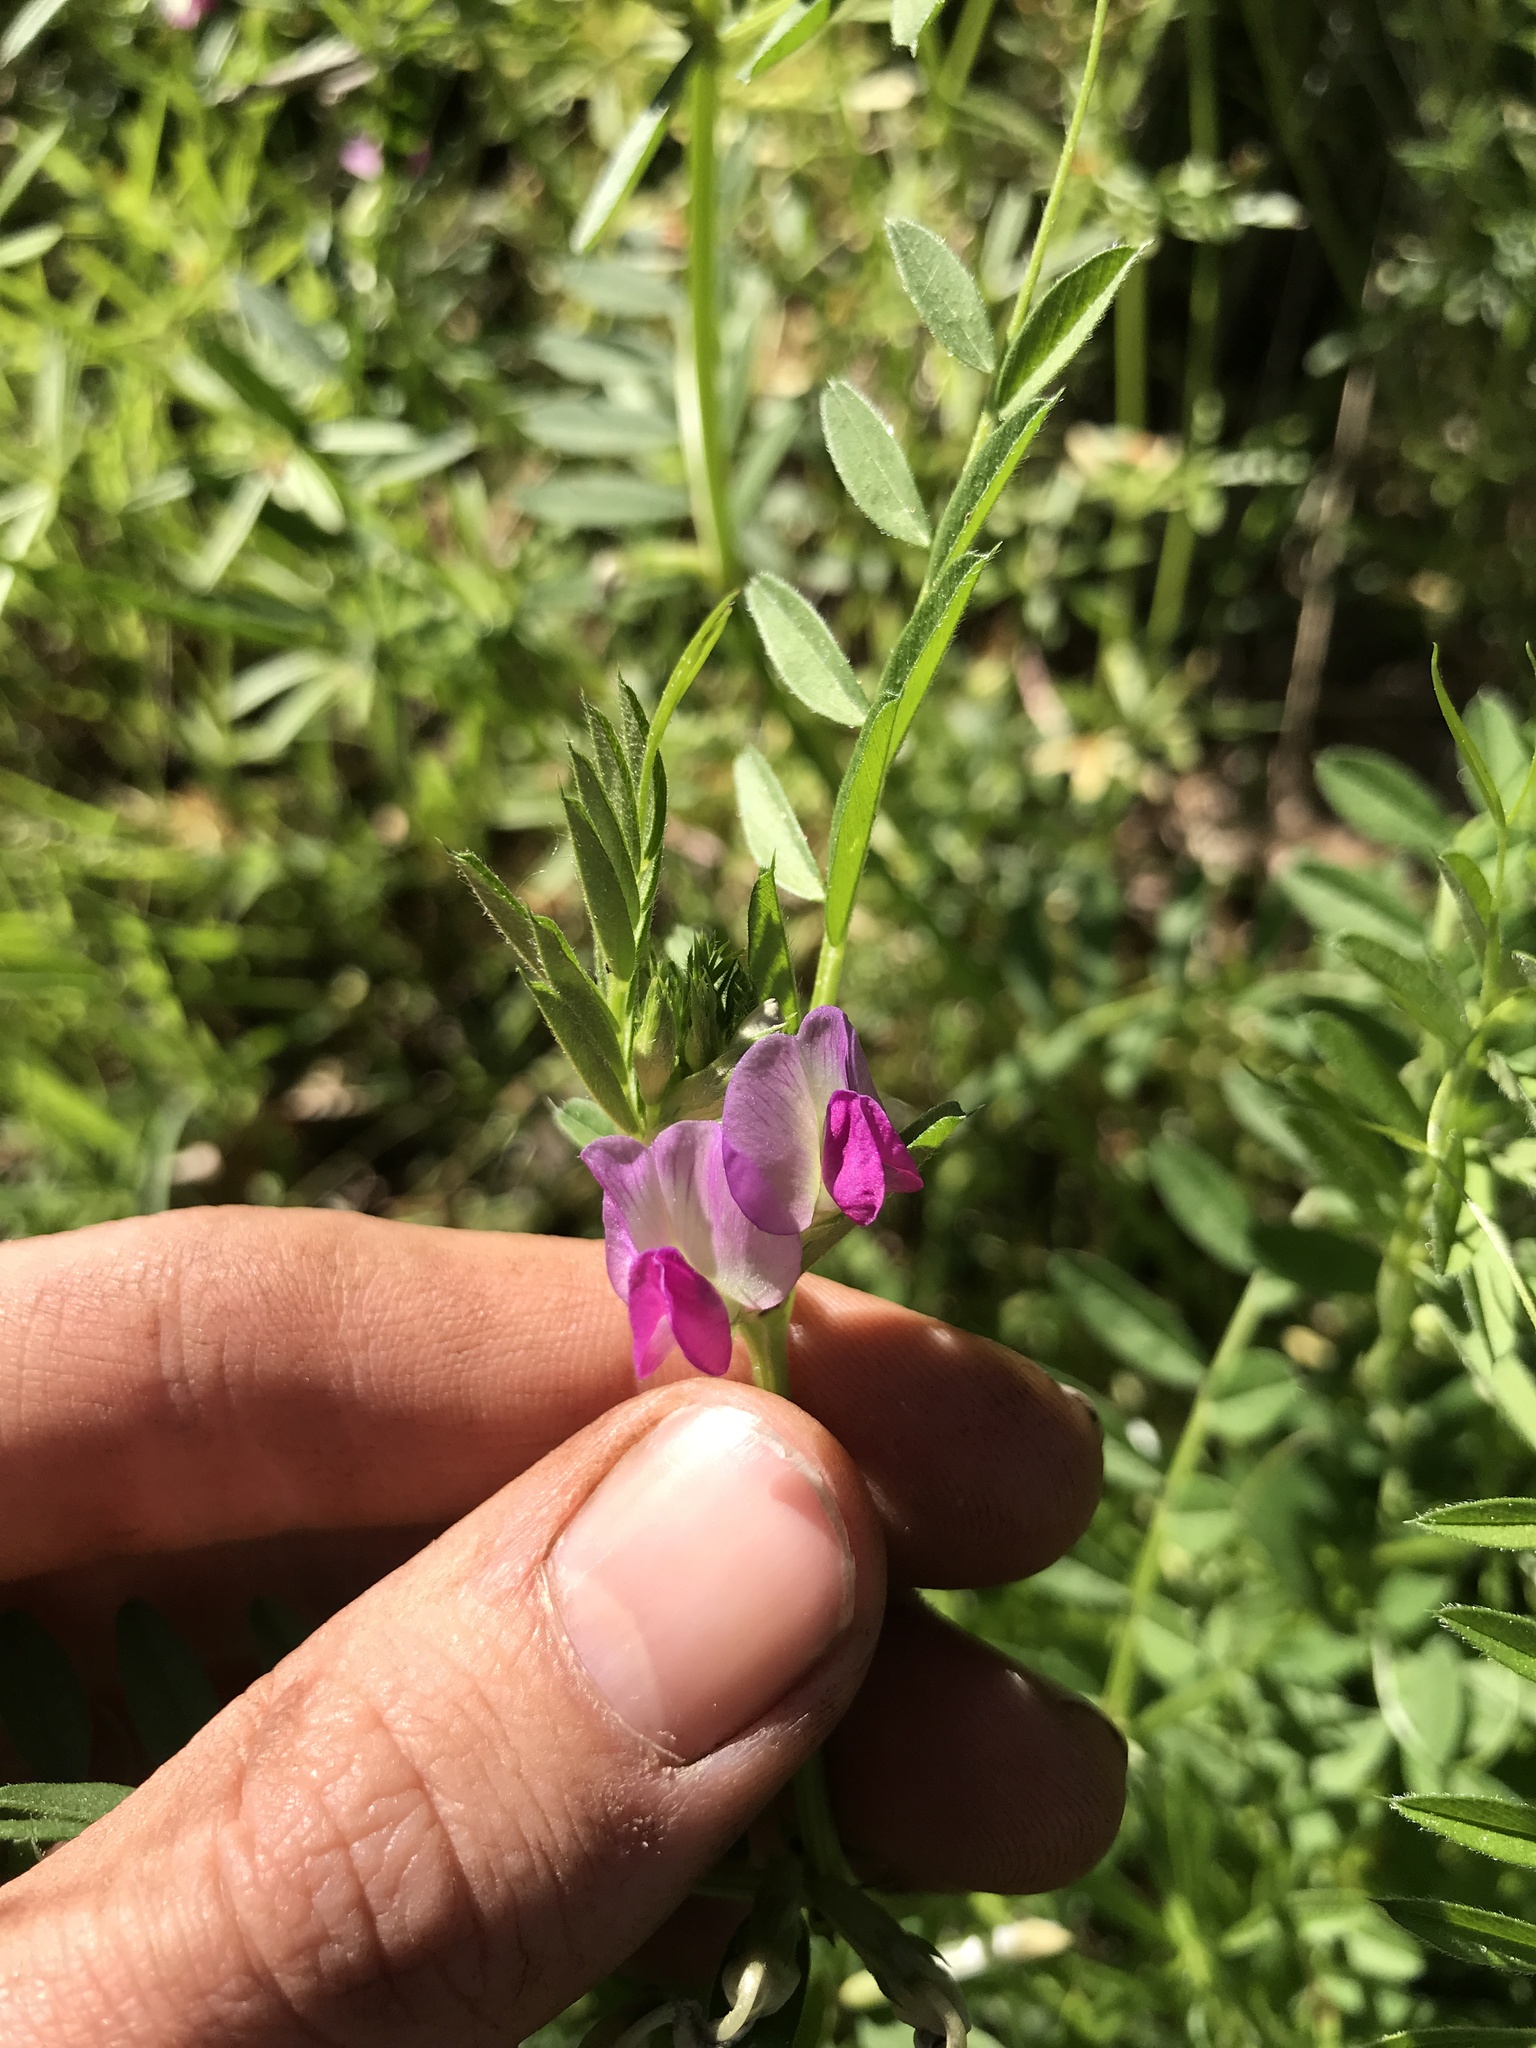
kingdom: Plantae
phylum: Tracheophyta
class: Magnoliopsida
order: Fabales
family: Fabaceae
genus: Vicia
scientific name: Vicia sativa
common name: Garden vetch
